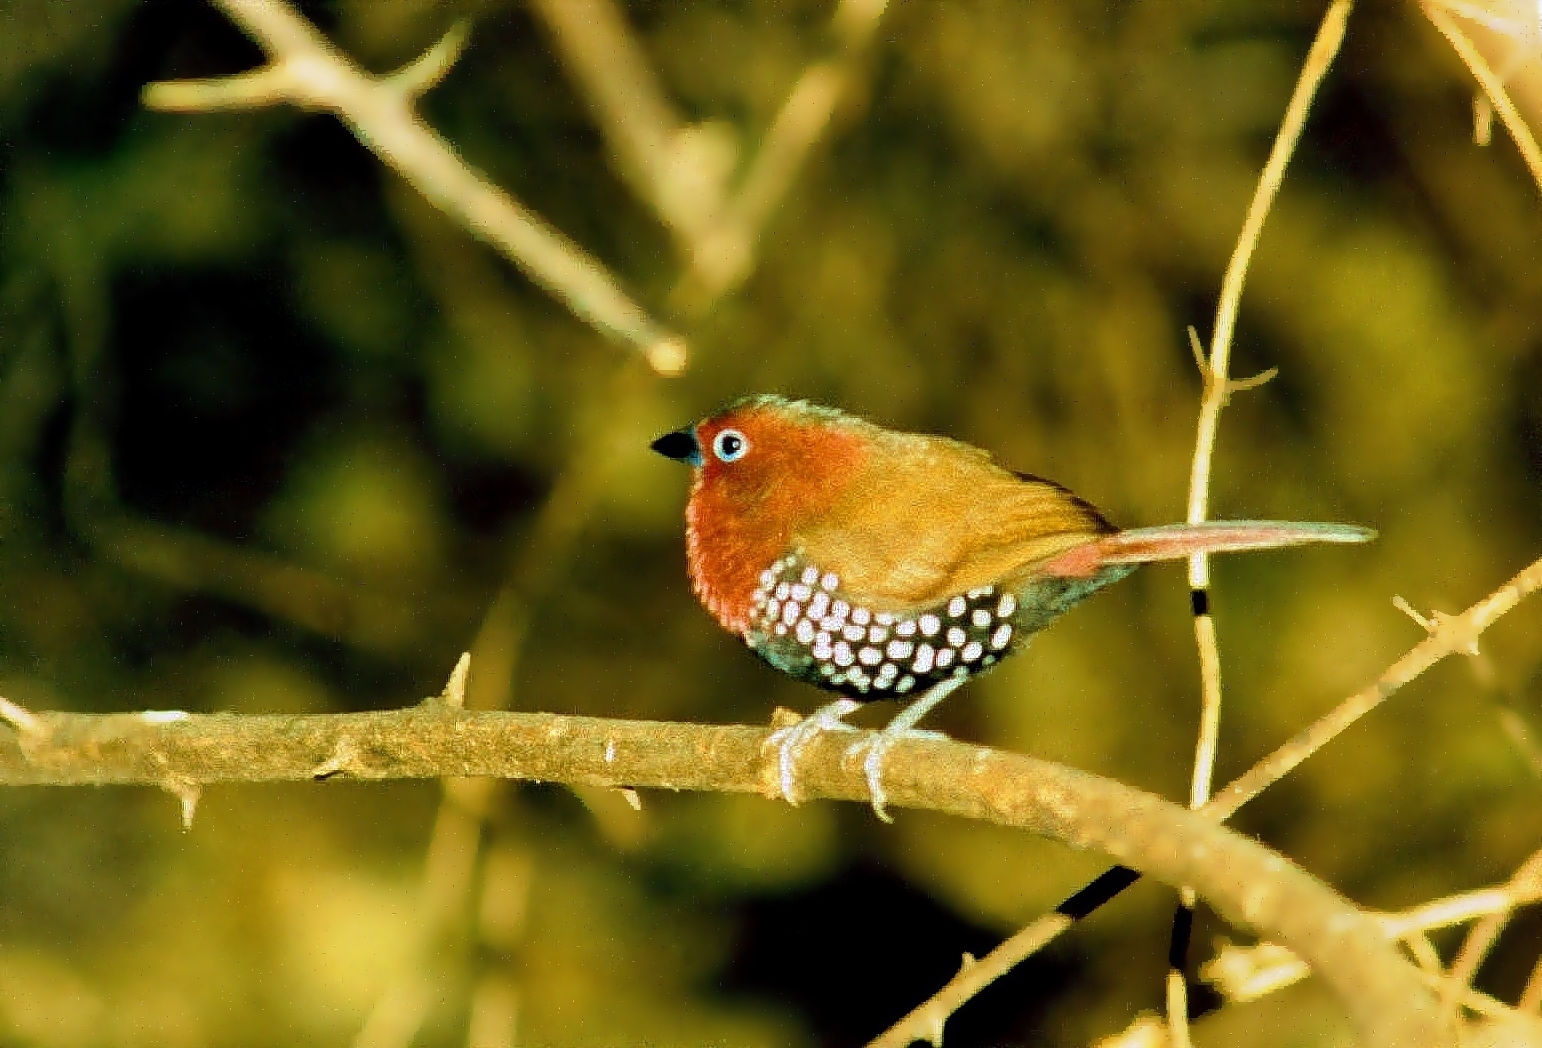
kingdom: Animalia
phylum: Chordata
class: Aves
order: Passeriformes
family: Estrildidae
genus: Hypargos
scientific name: Hypargos niveoguttatus
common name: Red-throated twinspot
